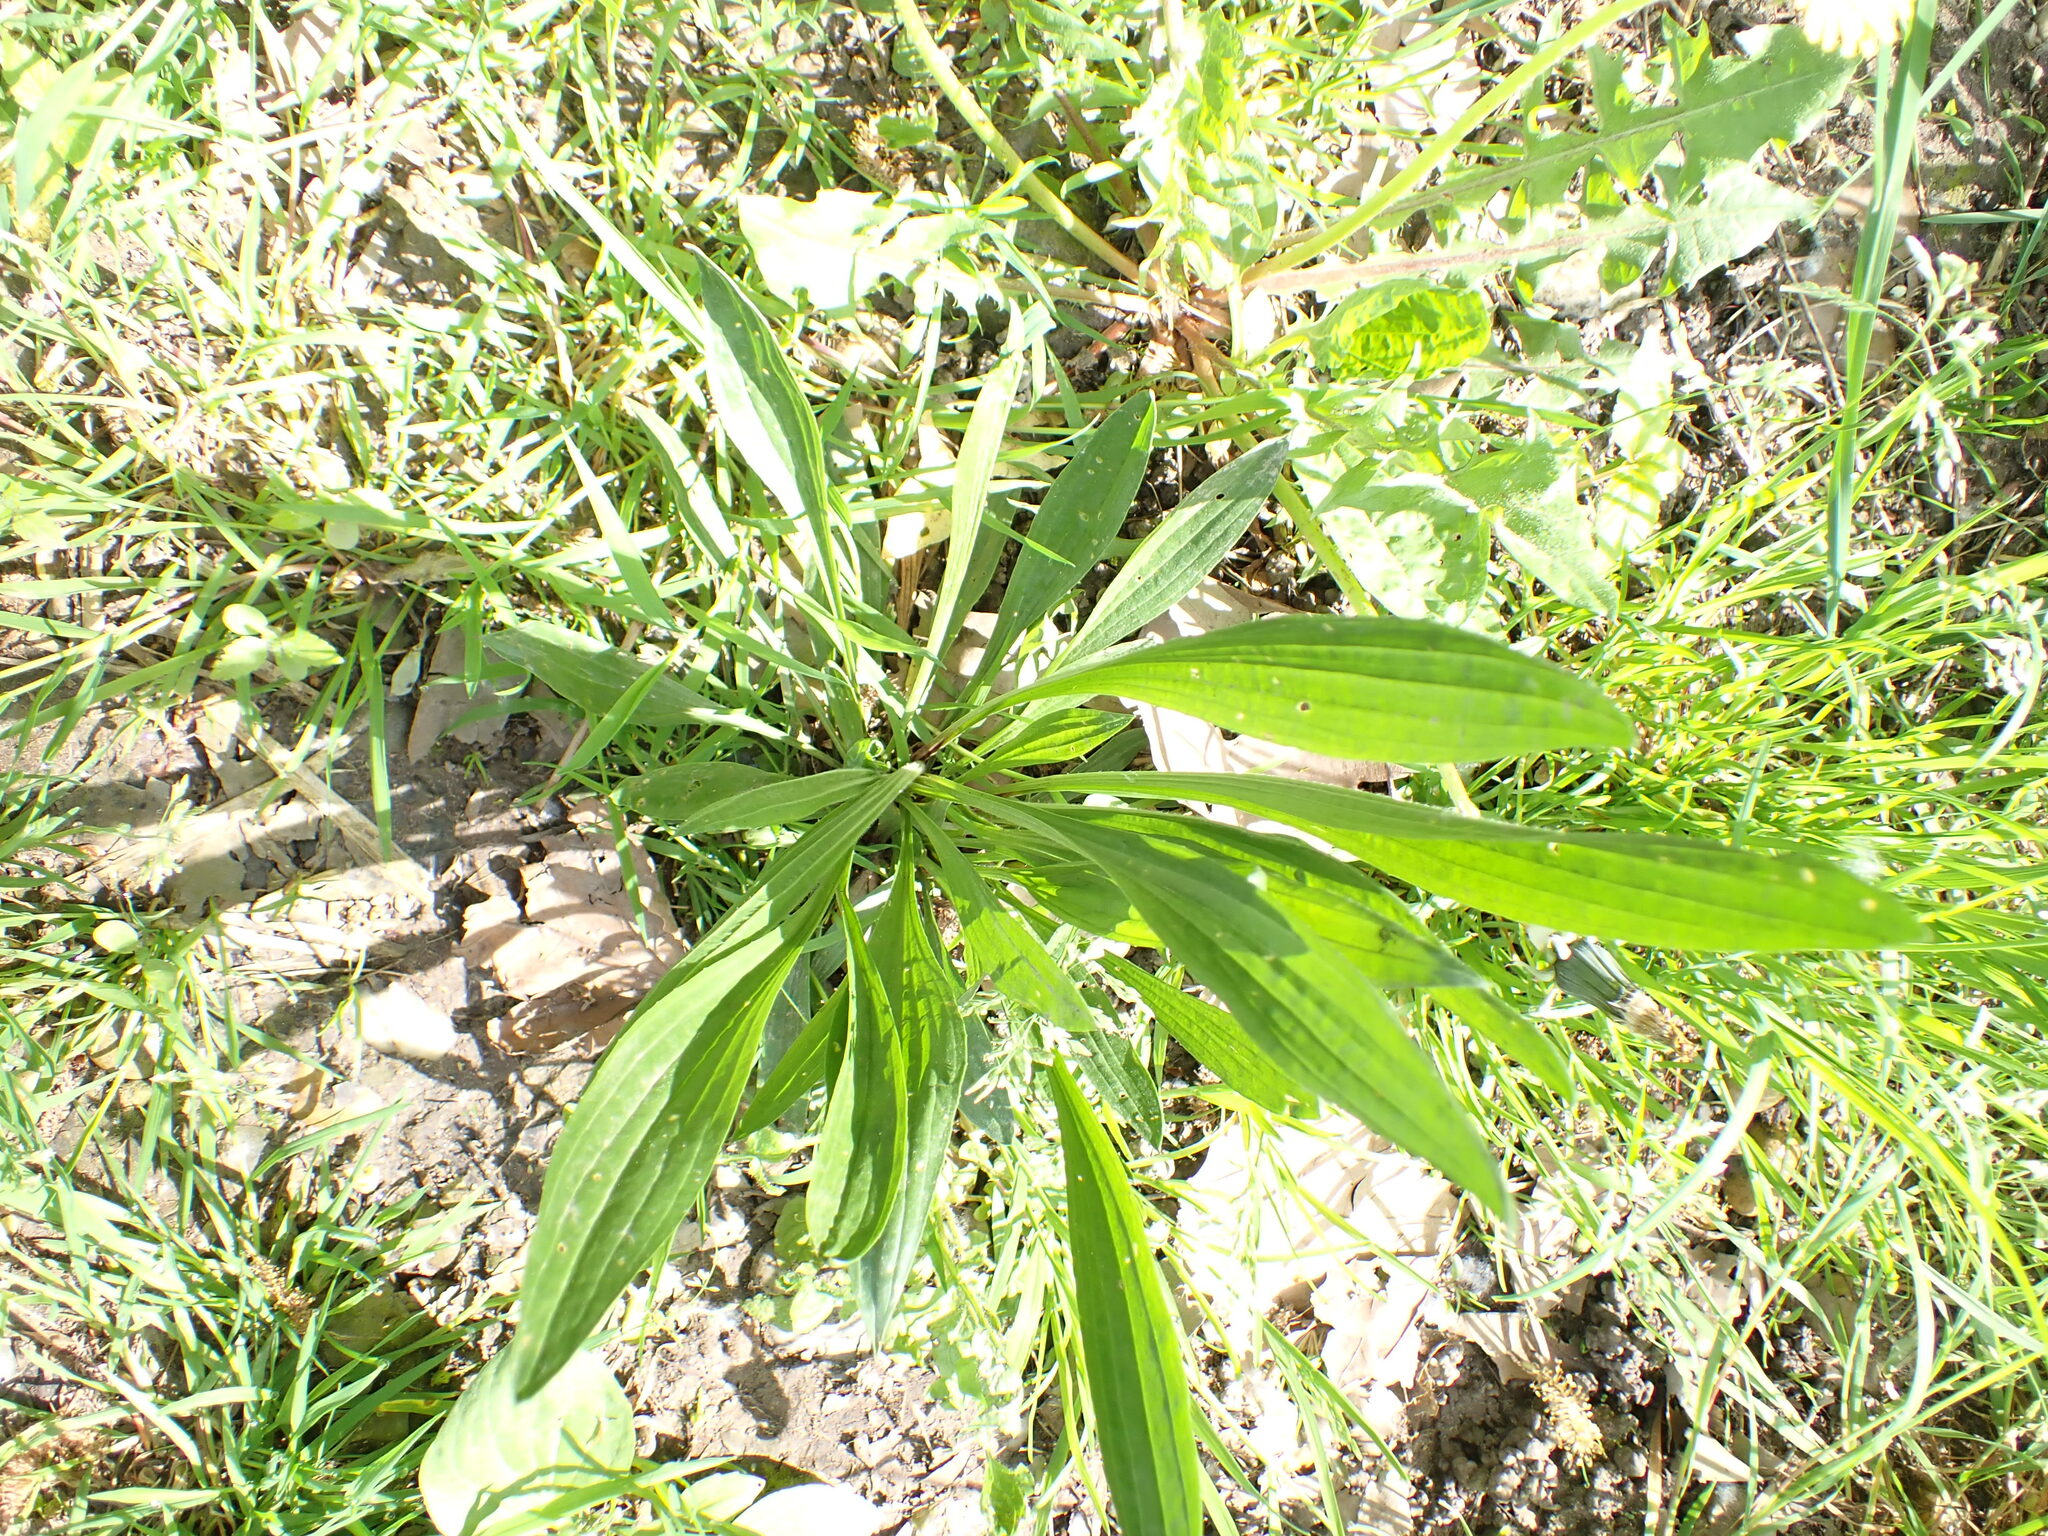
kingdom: Plantae
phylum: Tracheophyta
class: Magnoliopsida
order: Lamiales
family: Plantaginaceae
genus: Plantago
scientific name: Plantago lanceolata
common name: Ribwort plantain
